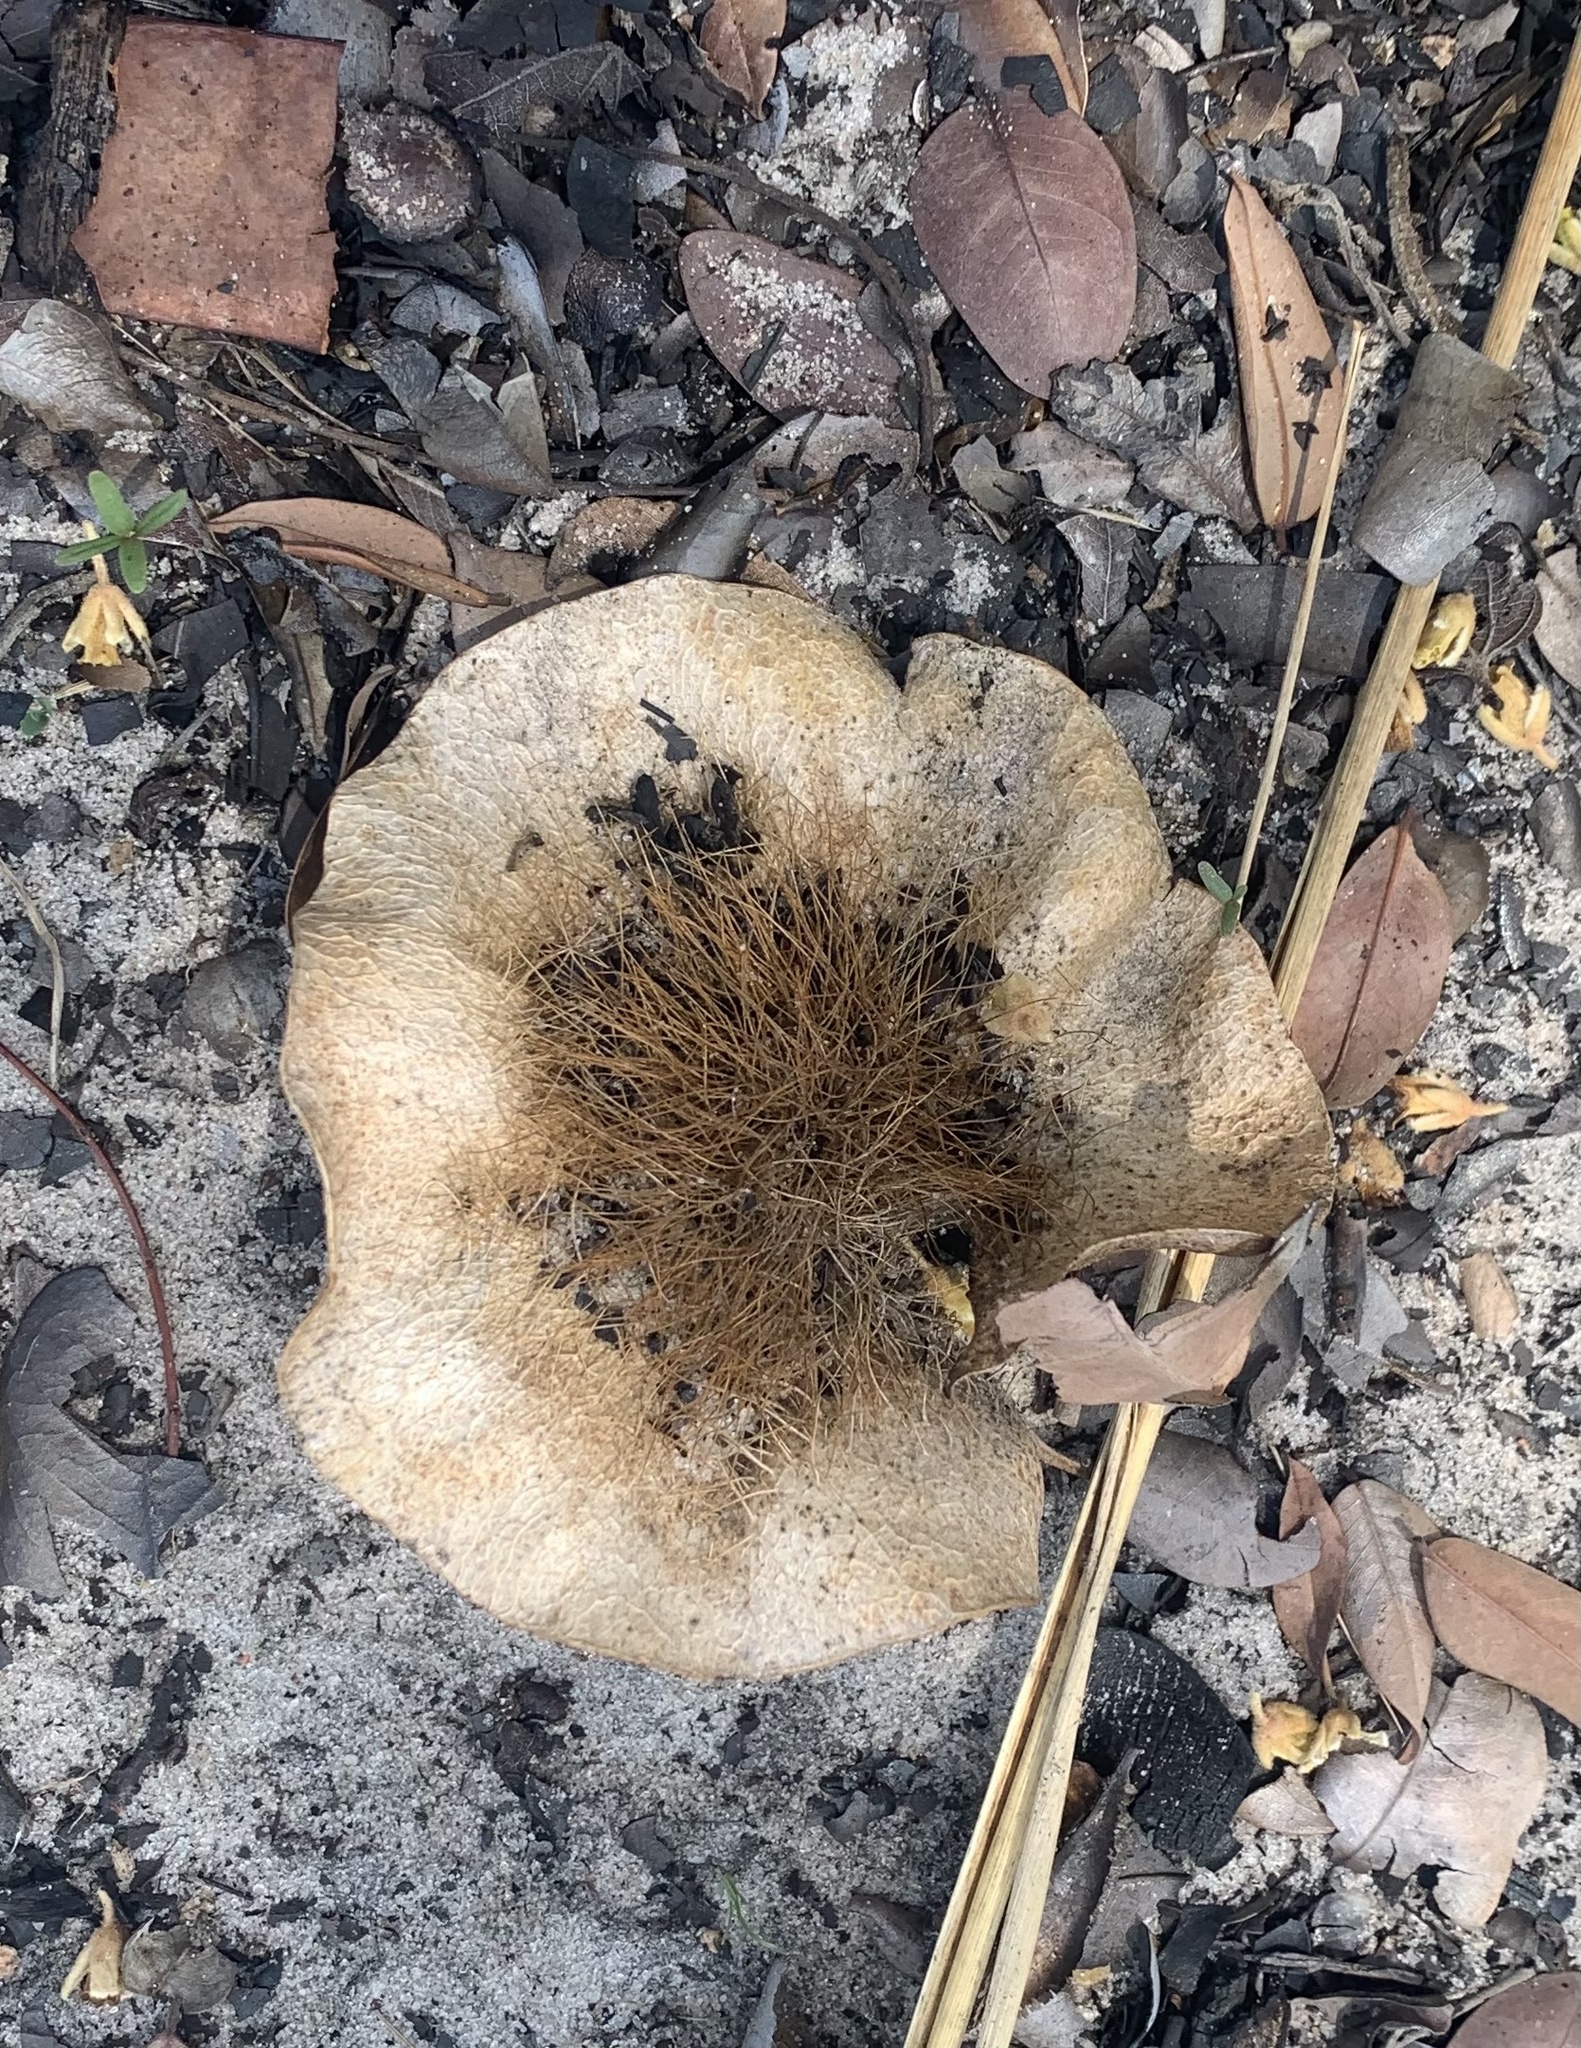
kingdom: Plantae
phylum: Tracheophyta
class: Magnoliopsida
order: Fabales
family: Fabaceae
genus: Pterocarpus
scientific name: Pterocarpus angolensis
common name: Bloodwood tree
